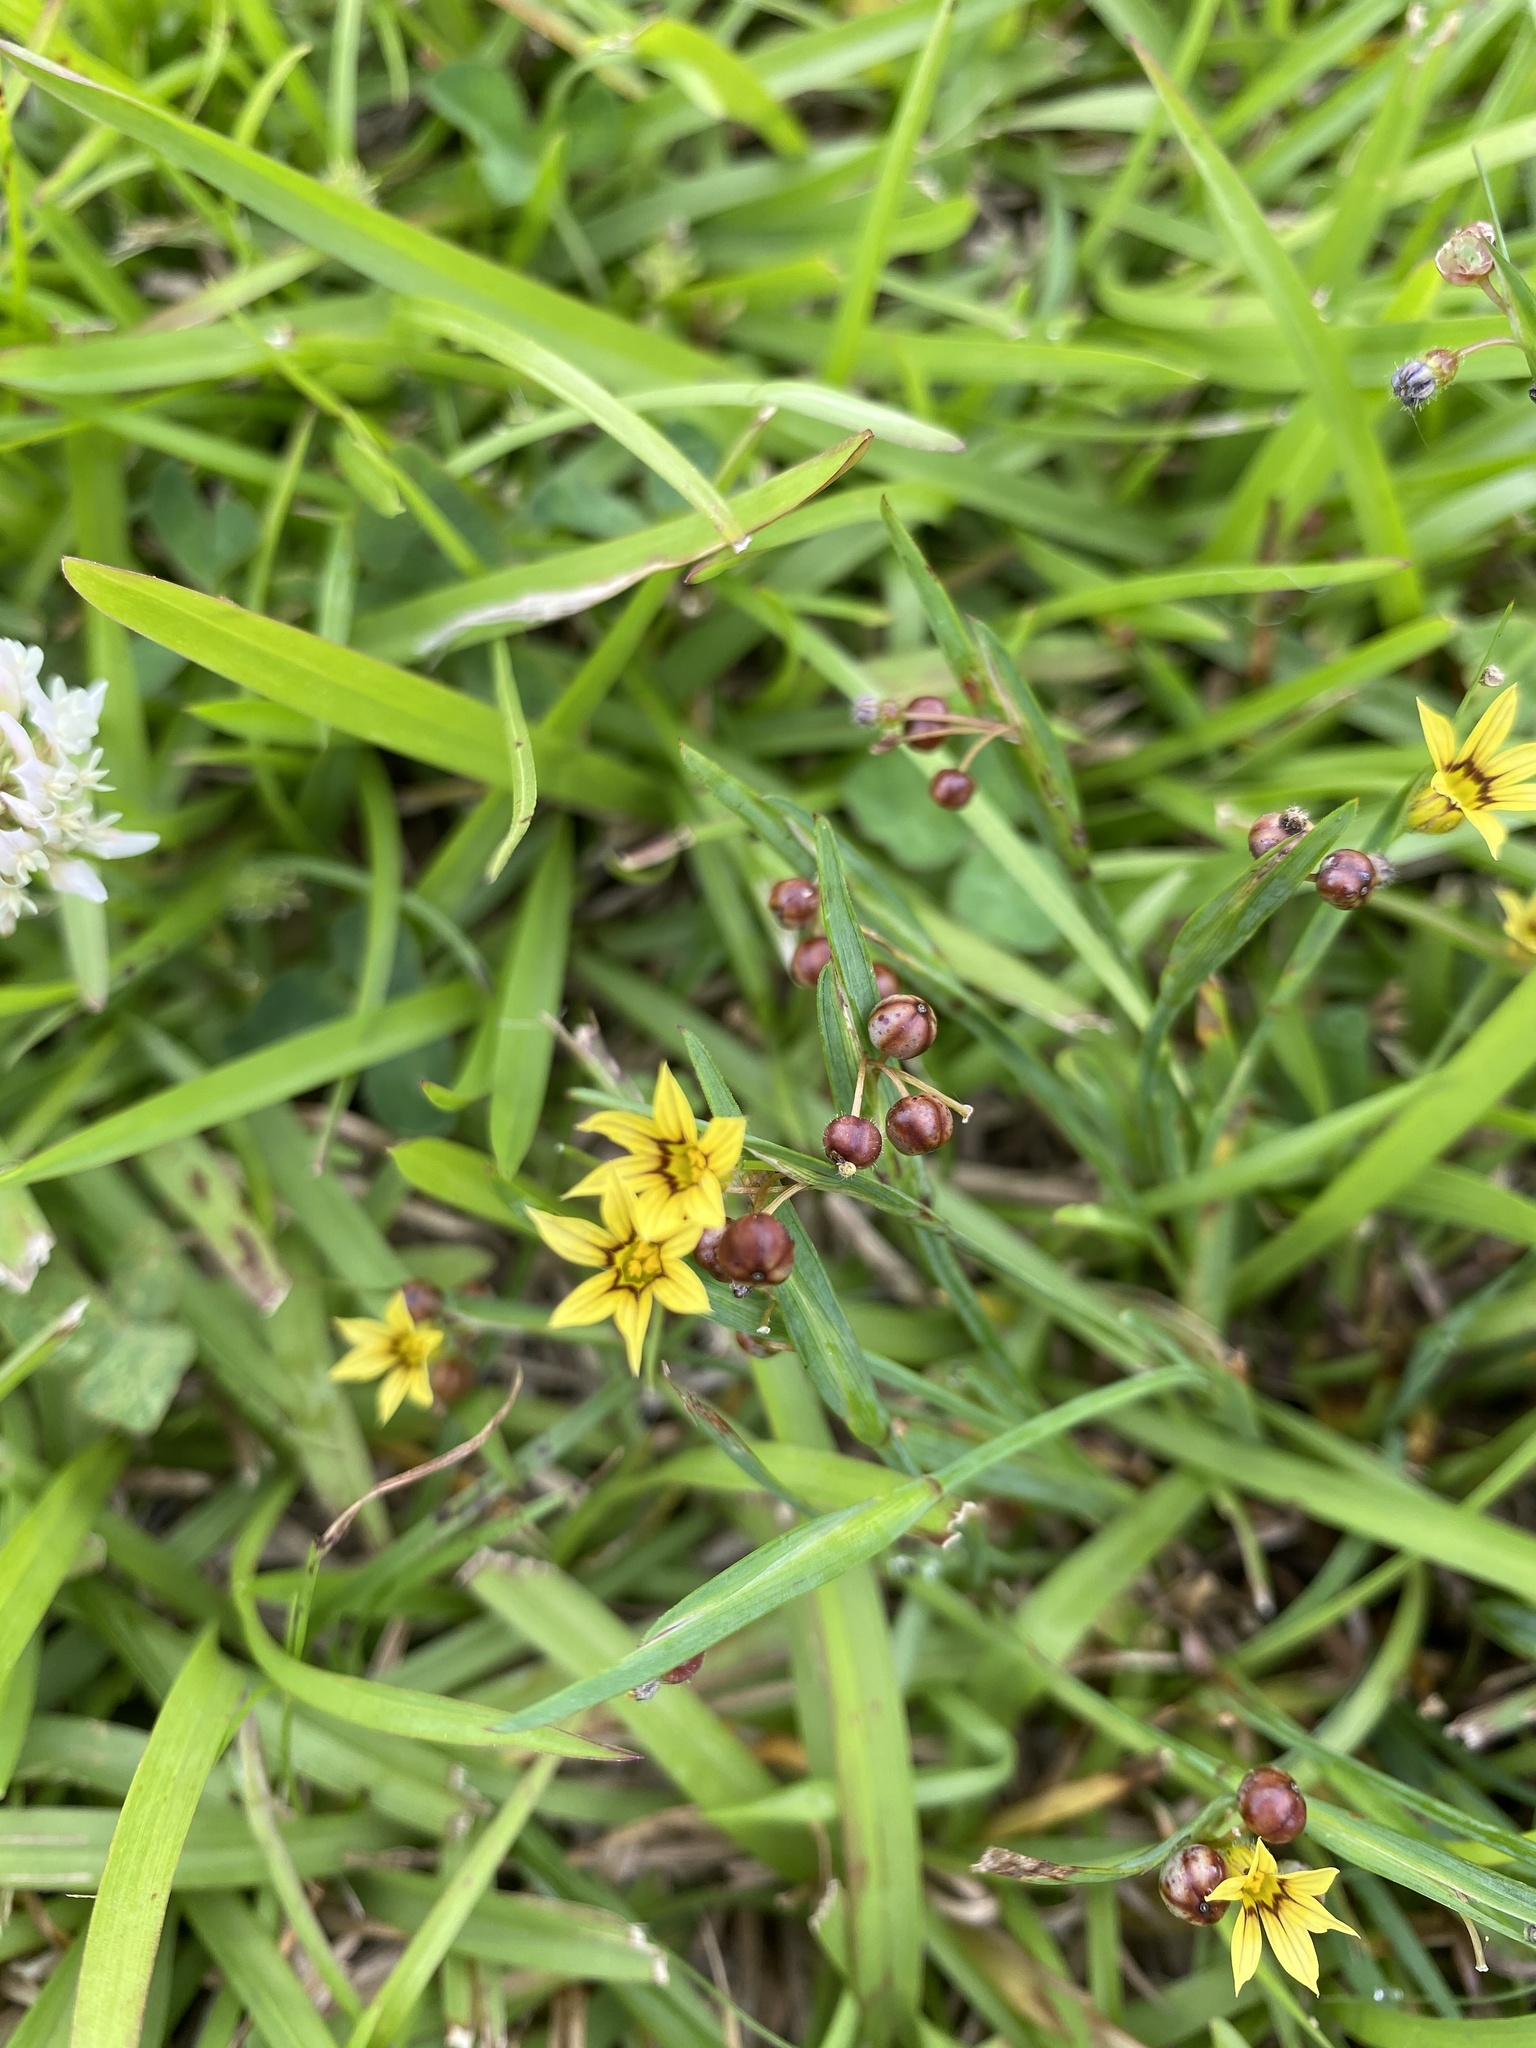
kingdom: Plantae
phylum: Tracheophyta
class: Liliopsida
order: Asparagales
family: Iridaceae
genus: Sisyrinchium
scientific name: Sisyrinchium micranthum
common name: Bermuda pigroot
